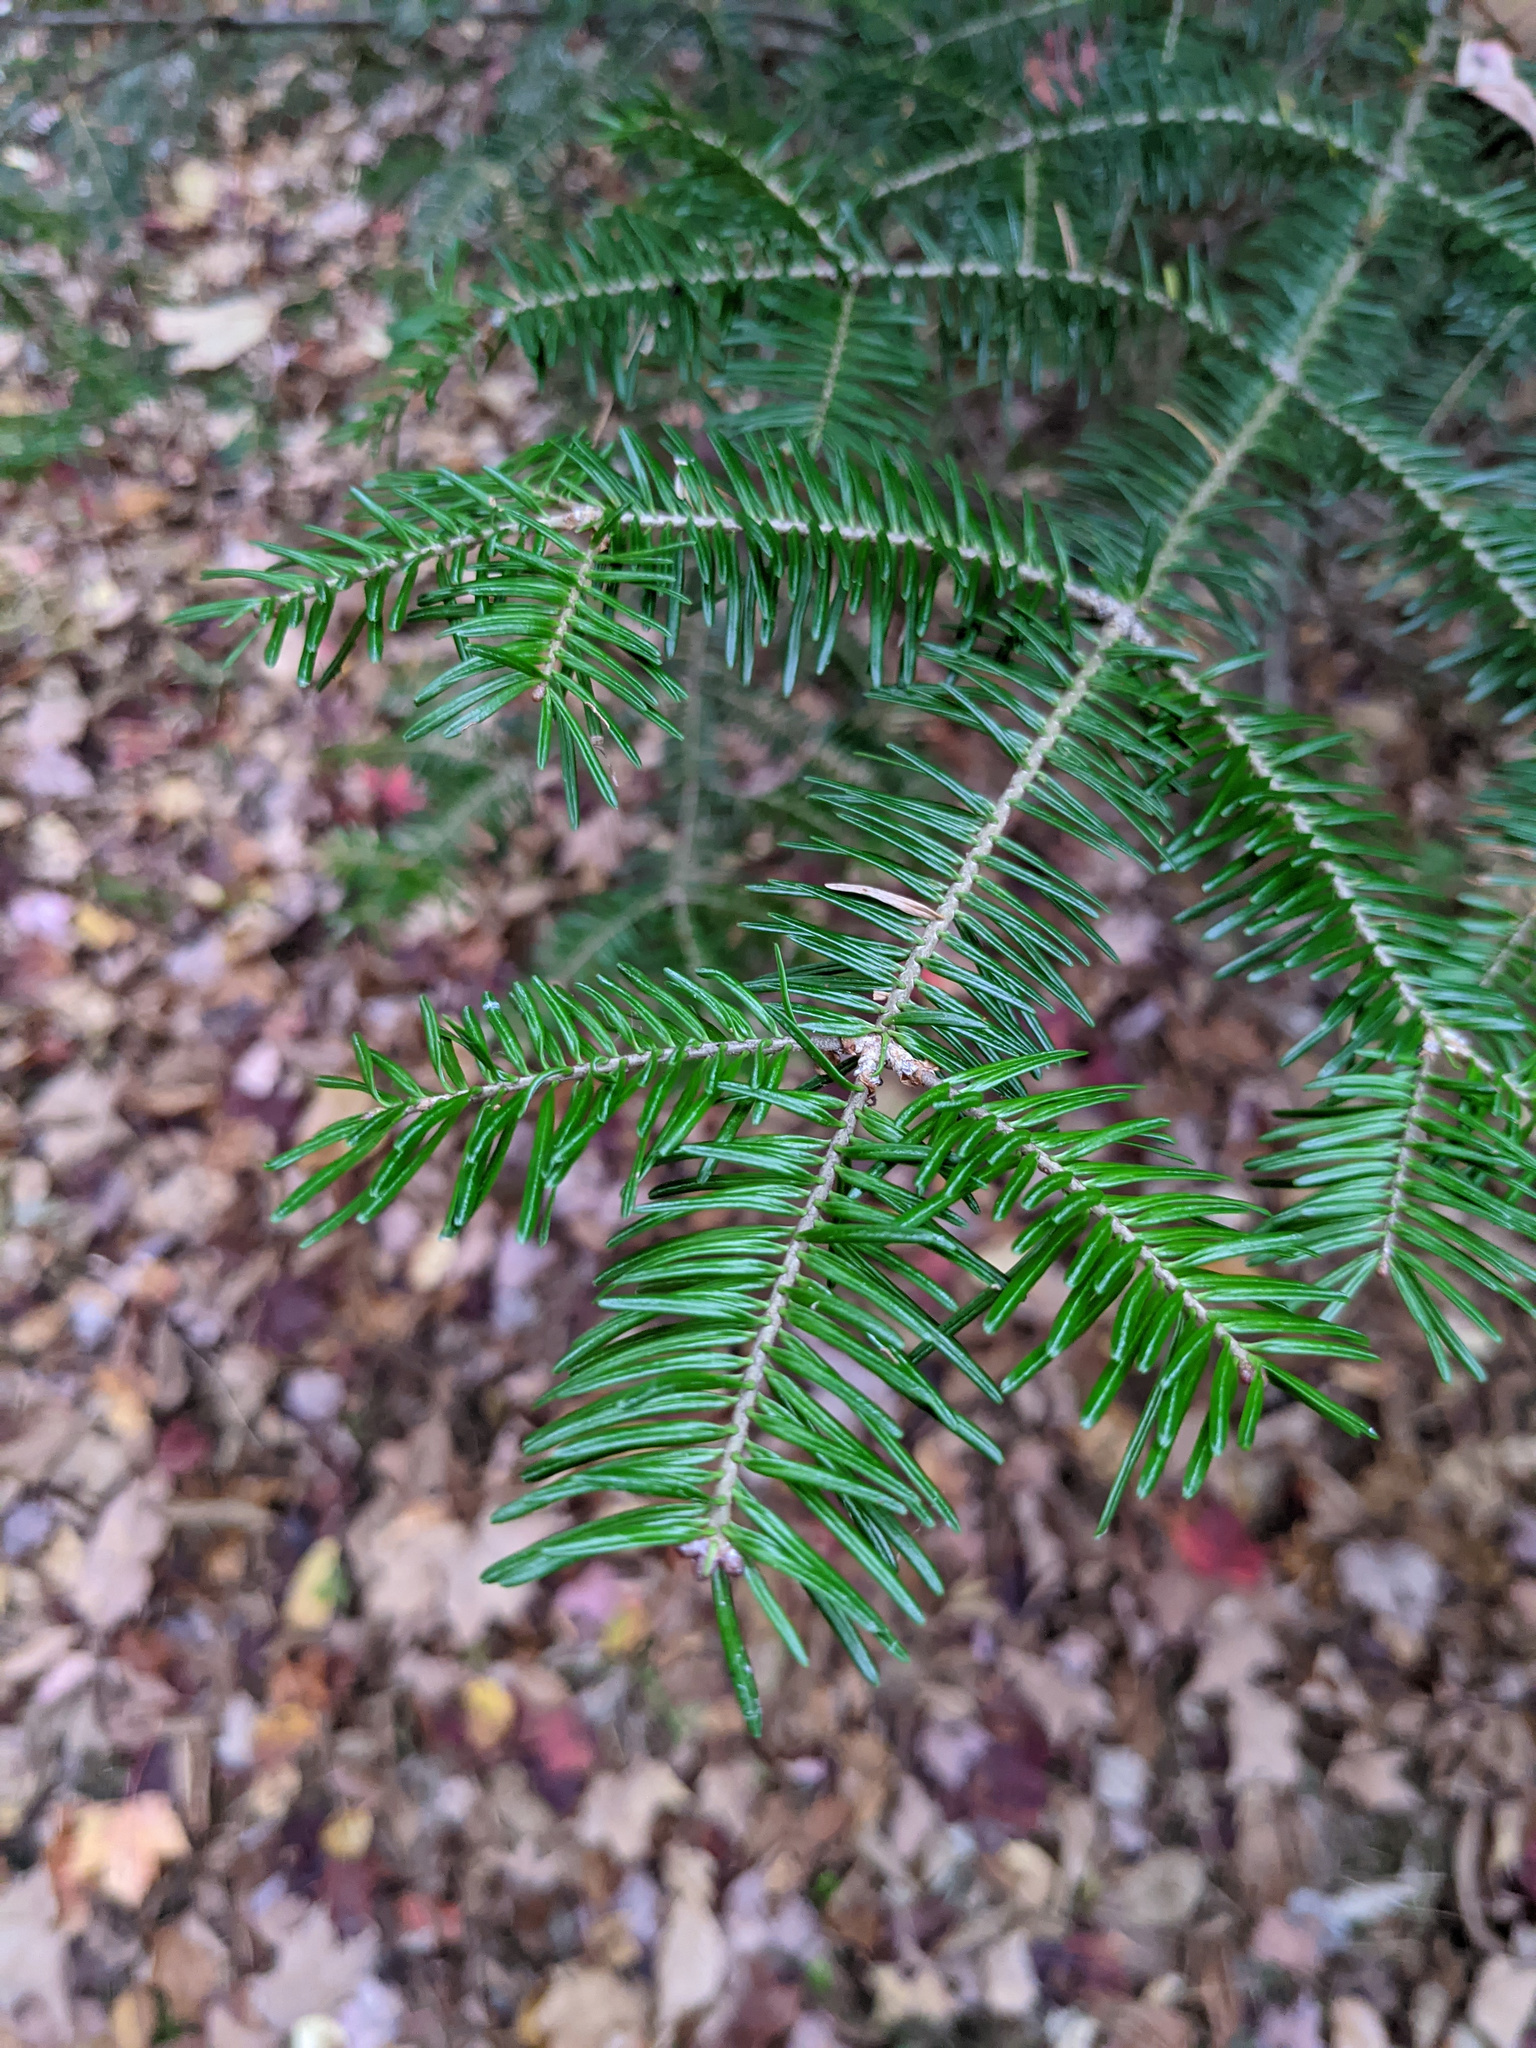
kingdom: Plantae
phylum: Tracheophyta
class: Pinopsida
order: Pinales
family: Pinaceae
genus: Abies
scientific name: Abies balsamea
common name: Balsam fir
